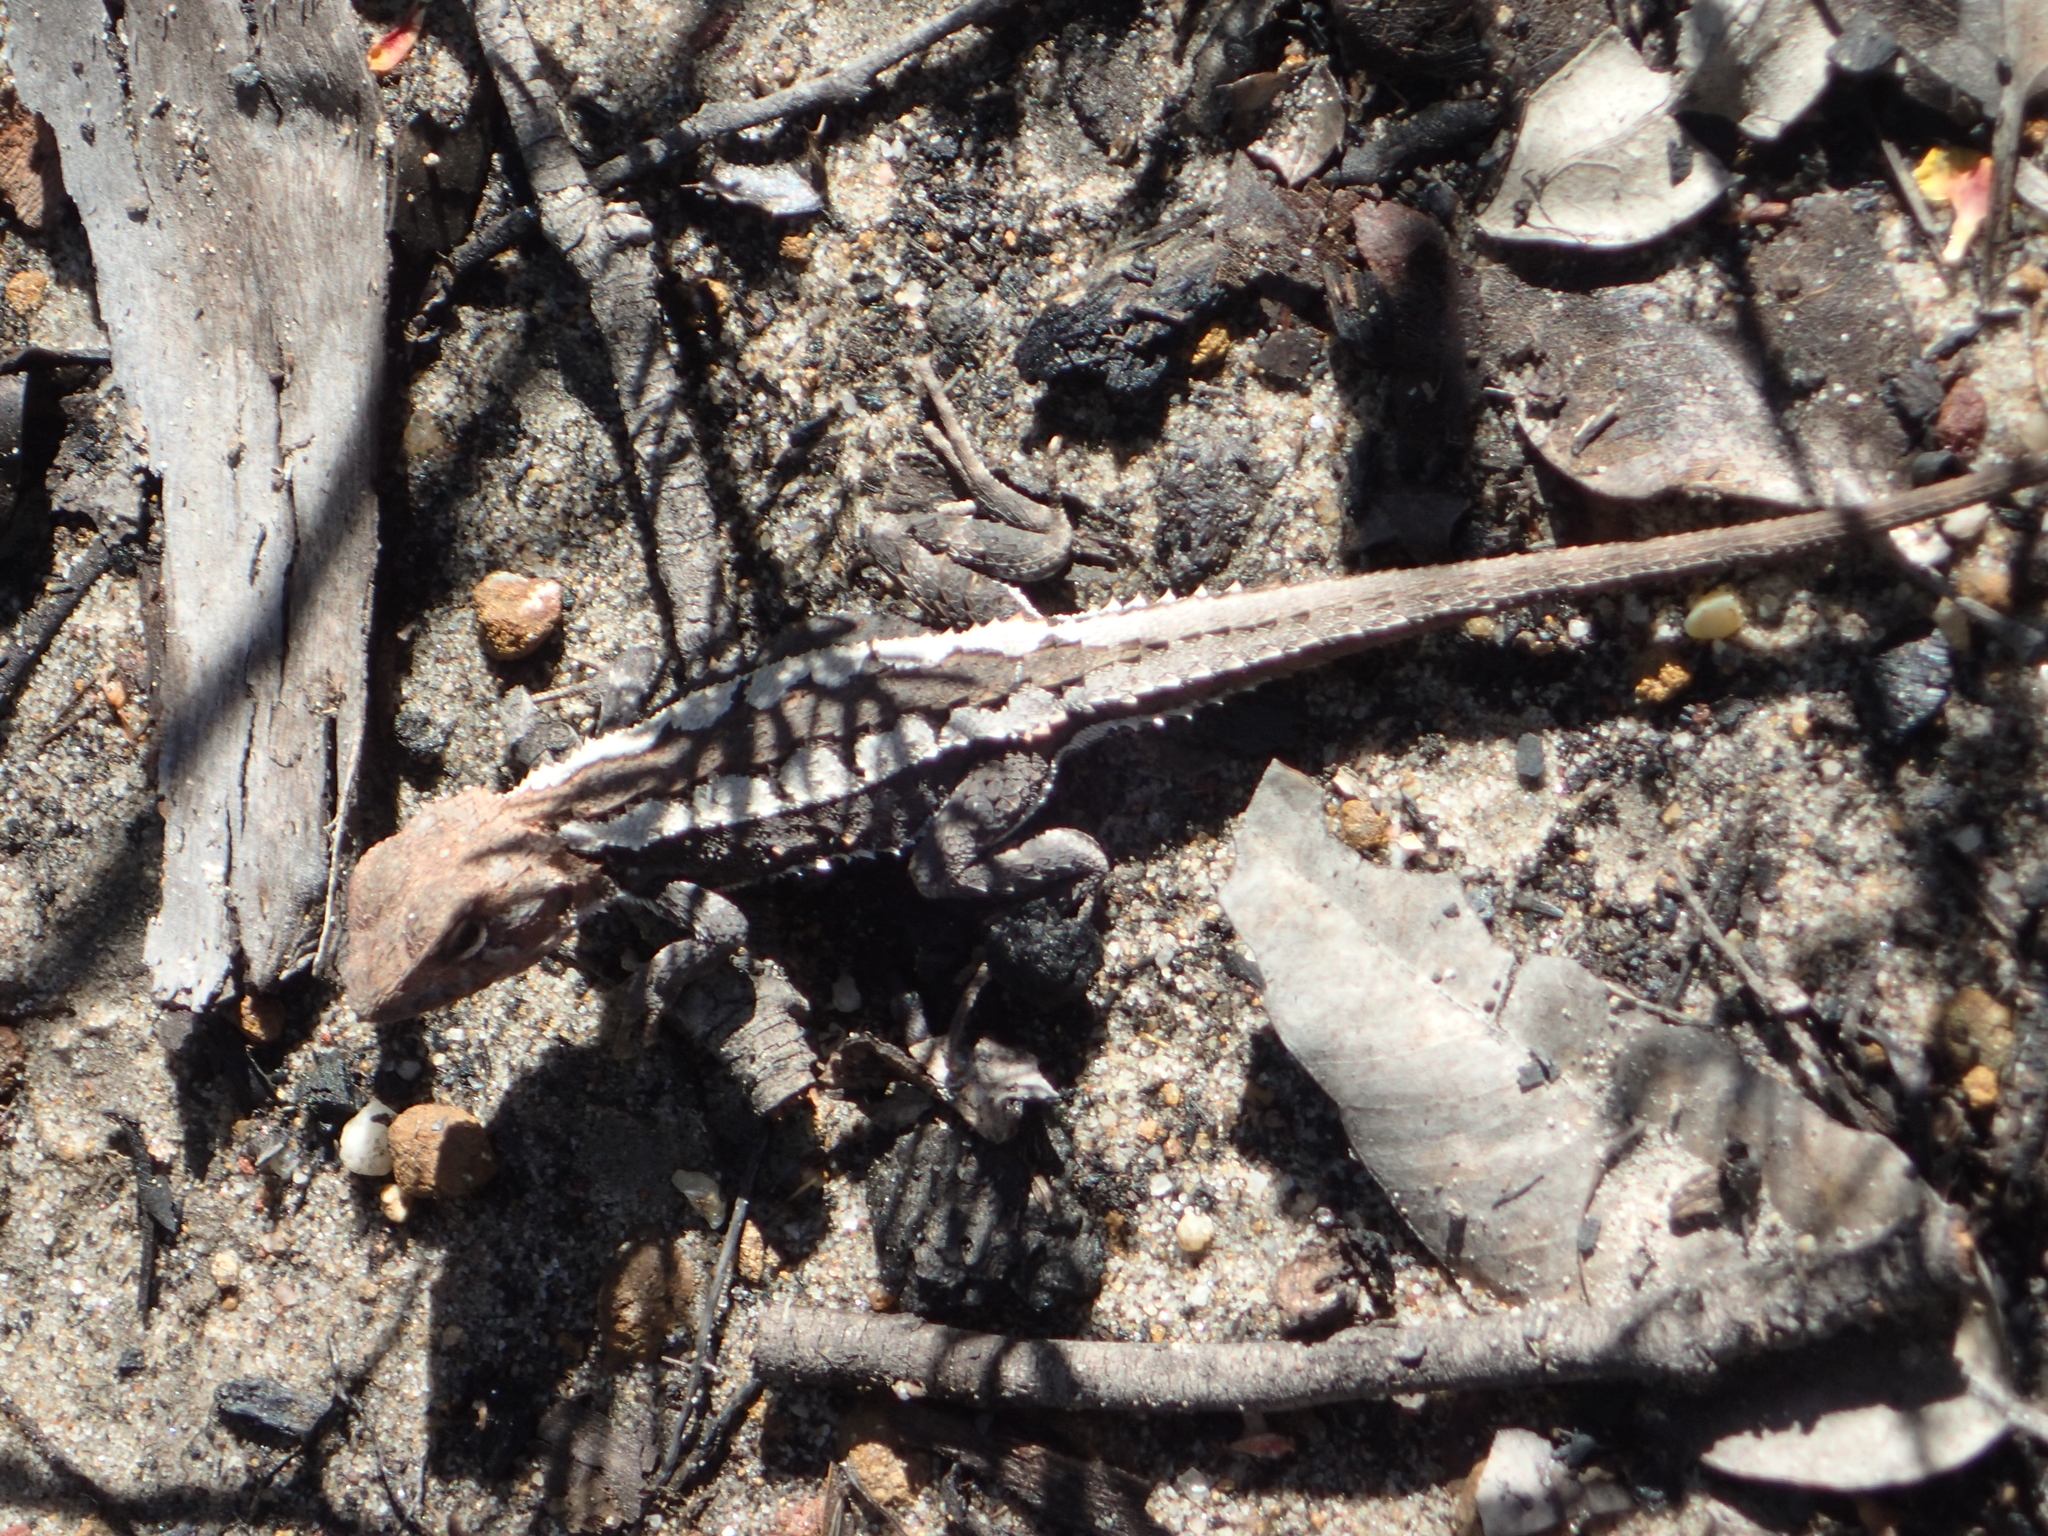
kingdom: Animalia
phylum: Chordata
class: Squamata
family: Agamidae
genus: Rankinia
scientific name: Rankinia diemensis
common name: Mountain dragon
